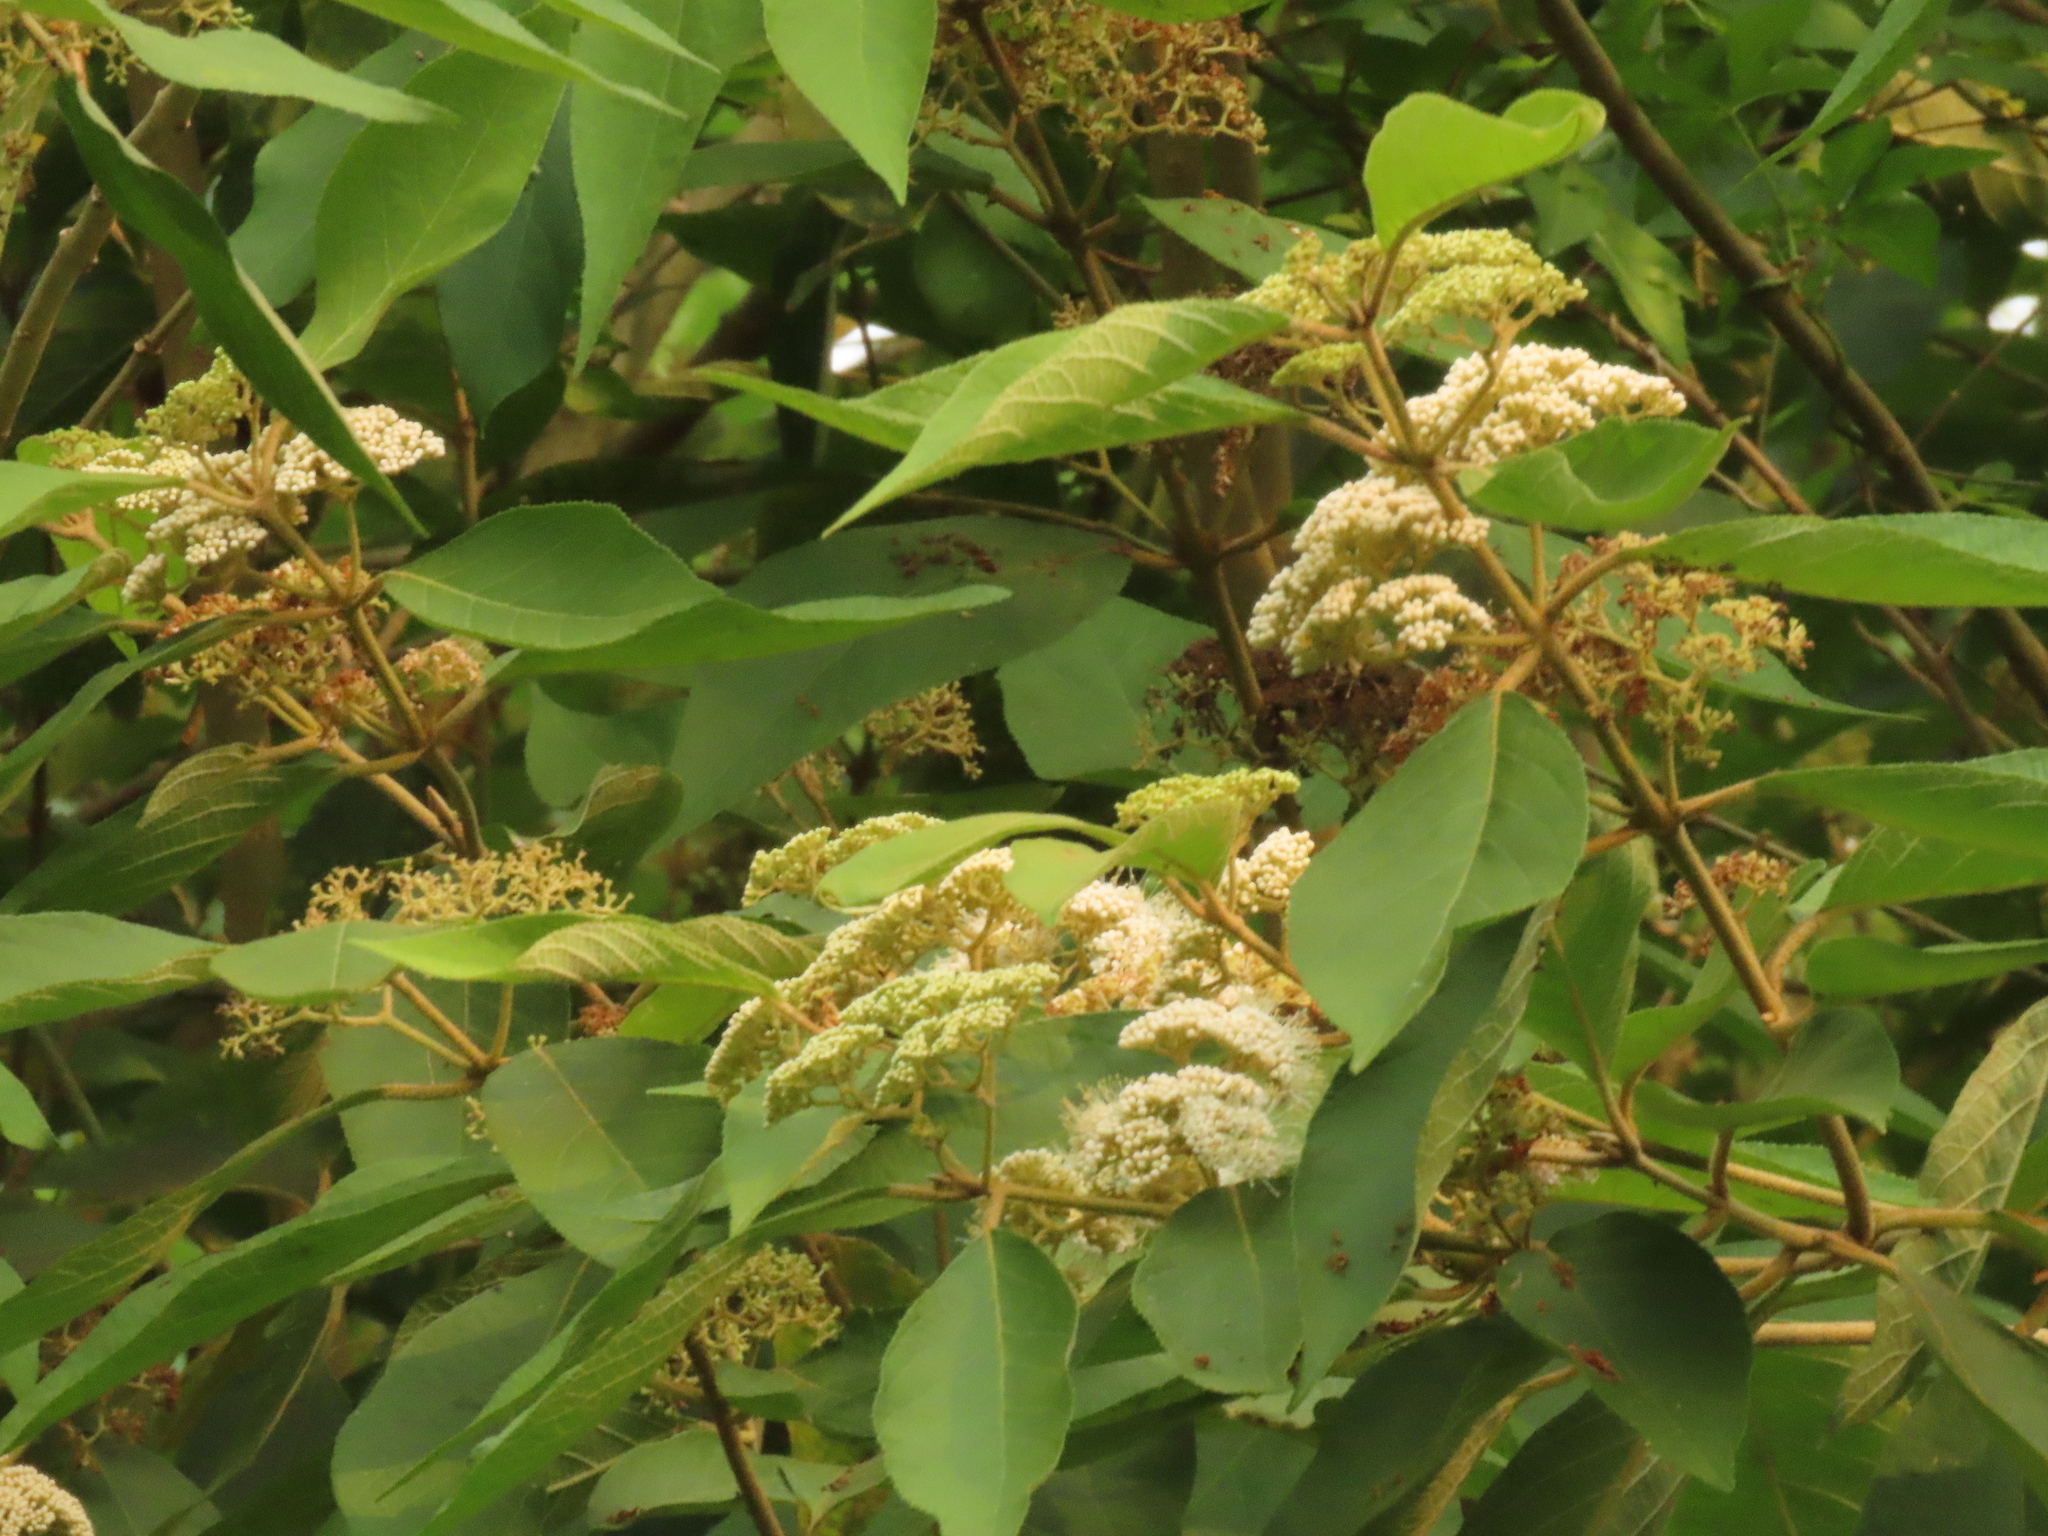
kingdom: Plantae
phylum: Tracheophyta
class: Magnoliopsida
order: Lamiales
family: Lamiaceae
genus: Callicarpa
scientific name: Callicarpa pedunculata
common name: Velvetleaf
